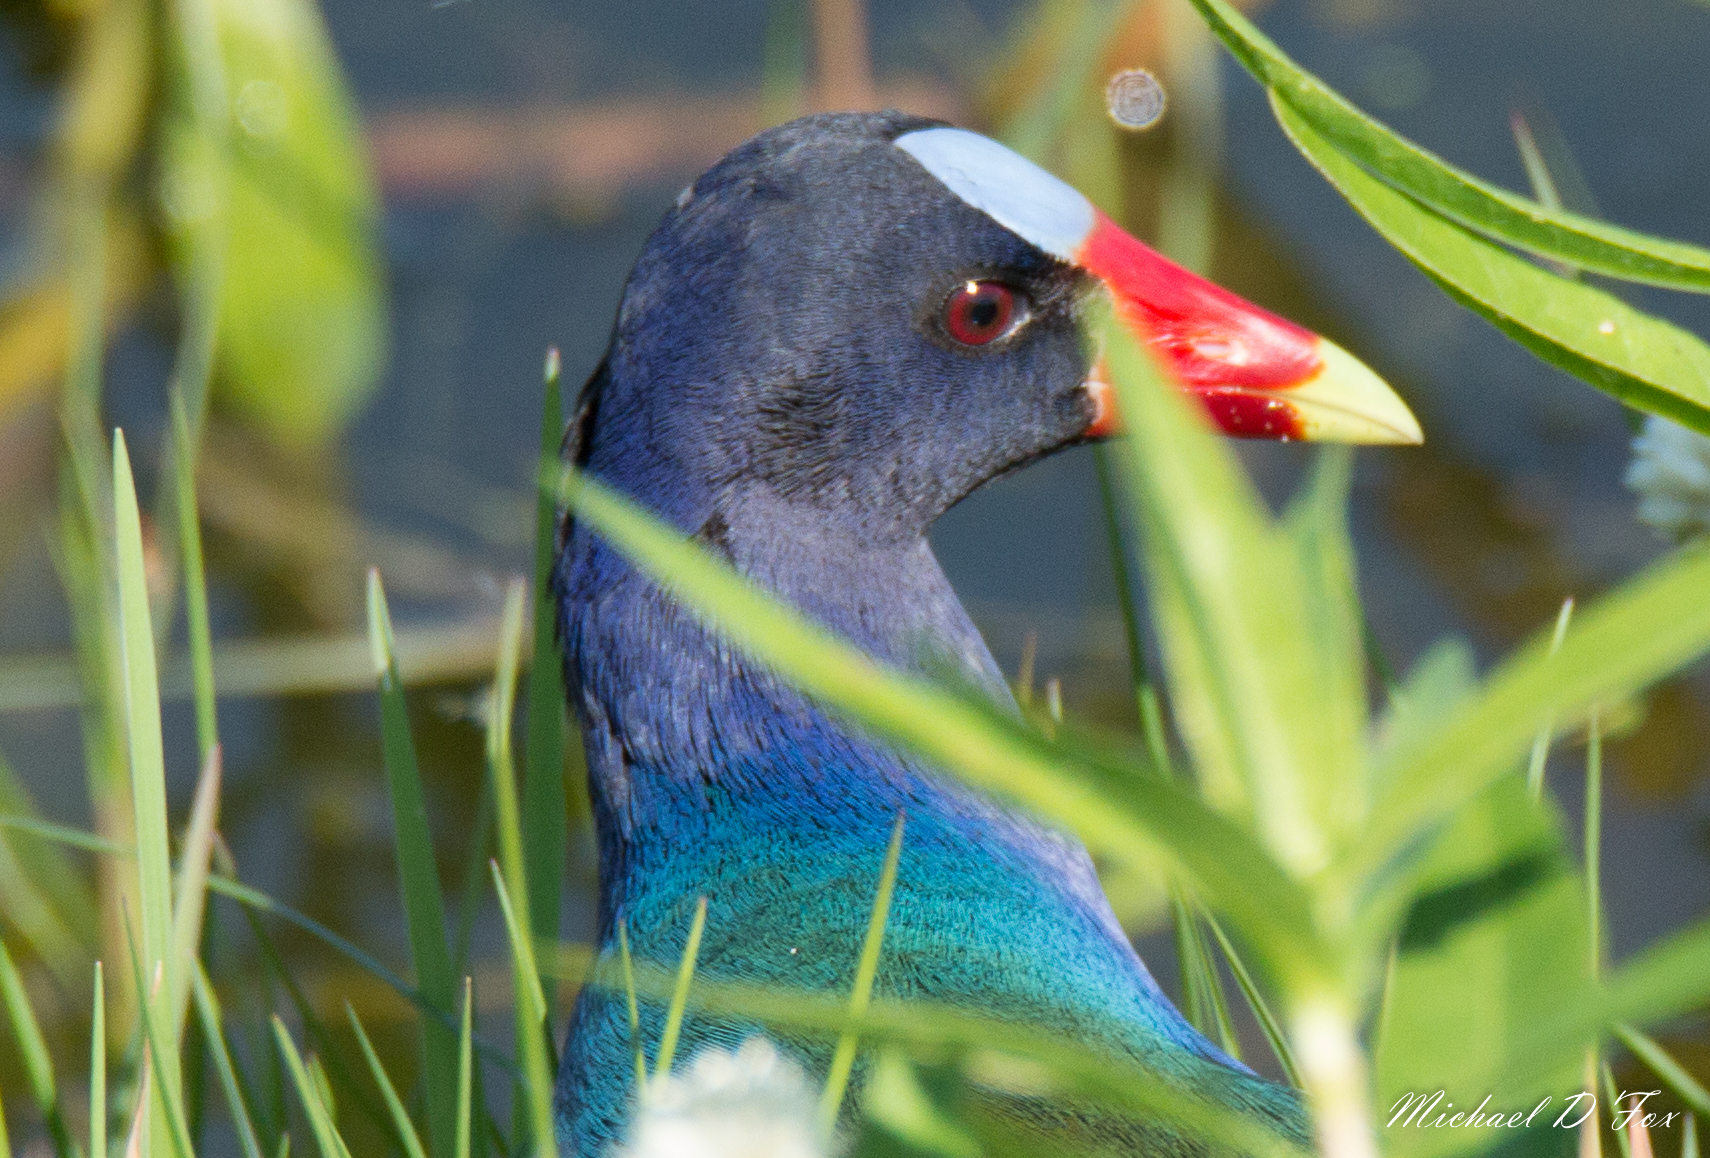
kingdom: Animalia
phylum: Chordata
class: Aves
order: Gruiformes
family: Rallidae
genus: Porphyrio
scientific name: Porphyrio martinica
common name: Purple gallinule
